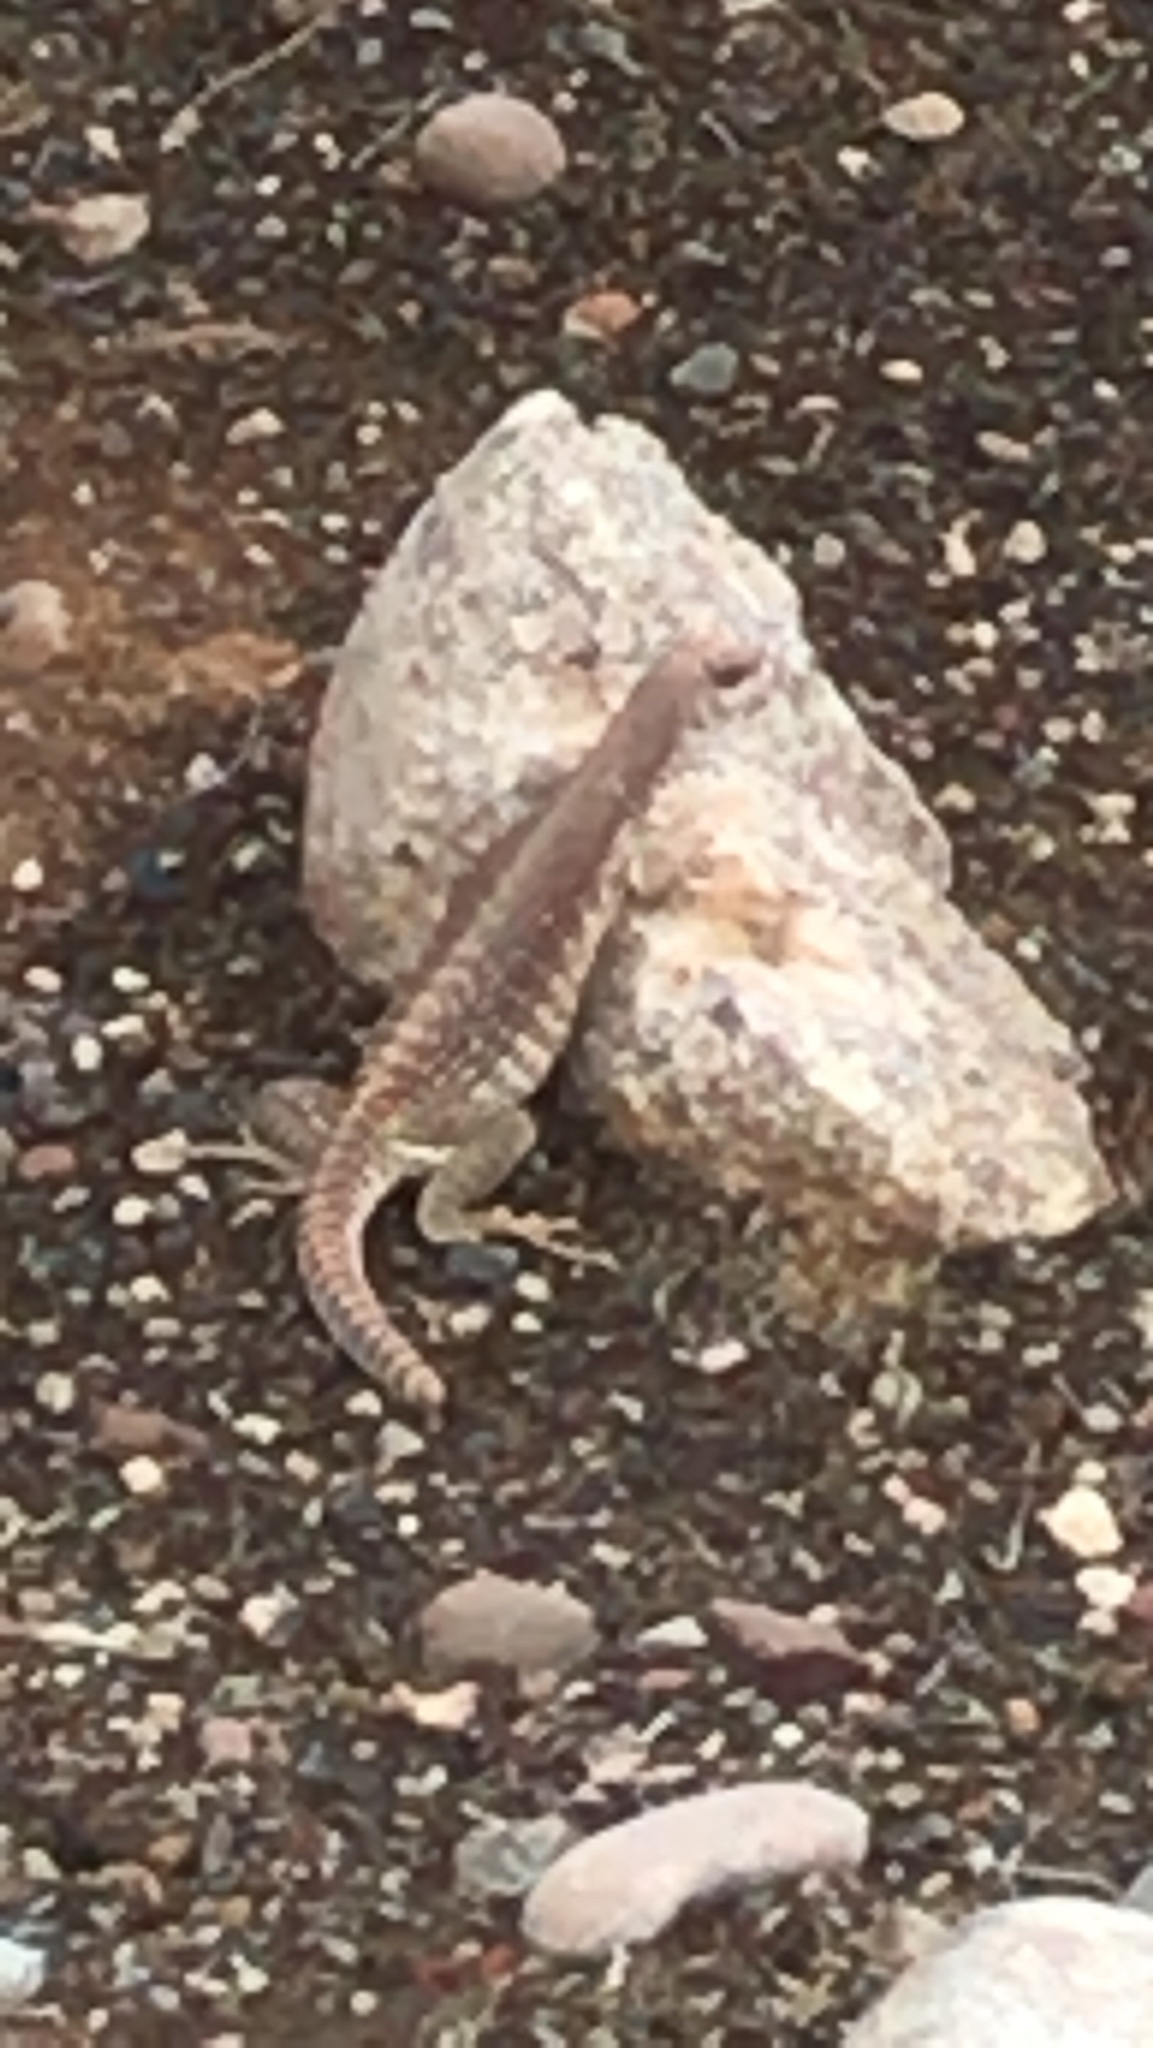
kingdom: Animalia
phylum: Chordata
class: Squamata
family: Iguanidae
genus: Dipsosaurus
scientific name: Dipsosaurus dorsalis
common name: Desert iguana
